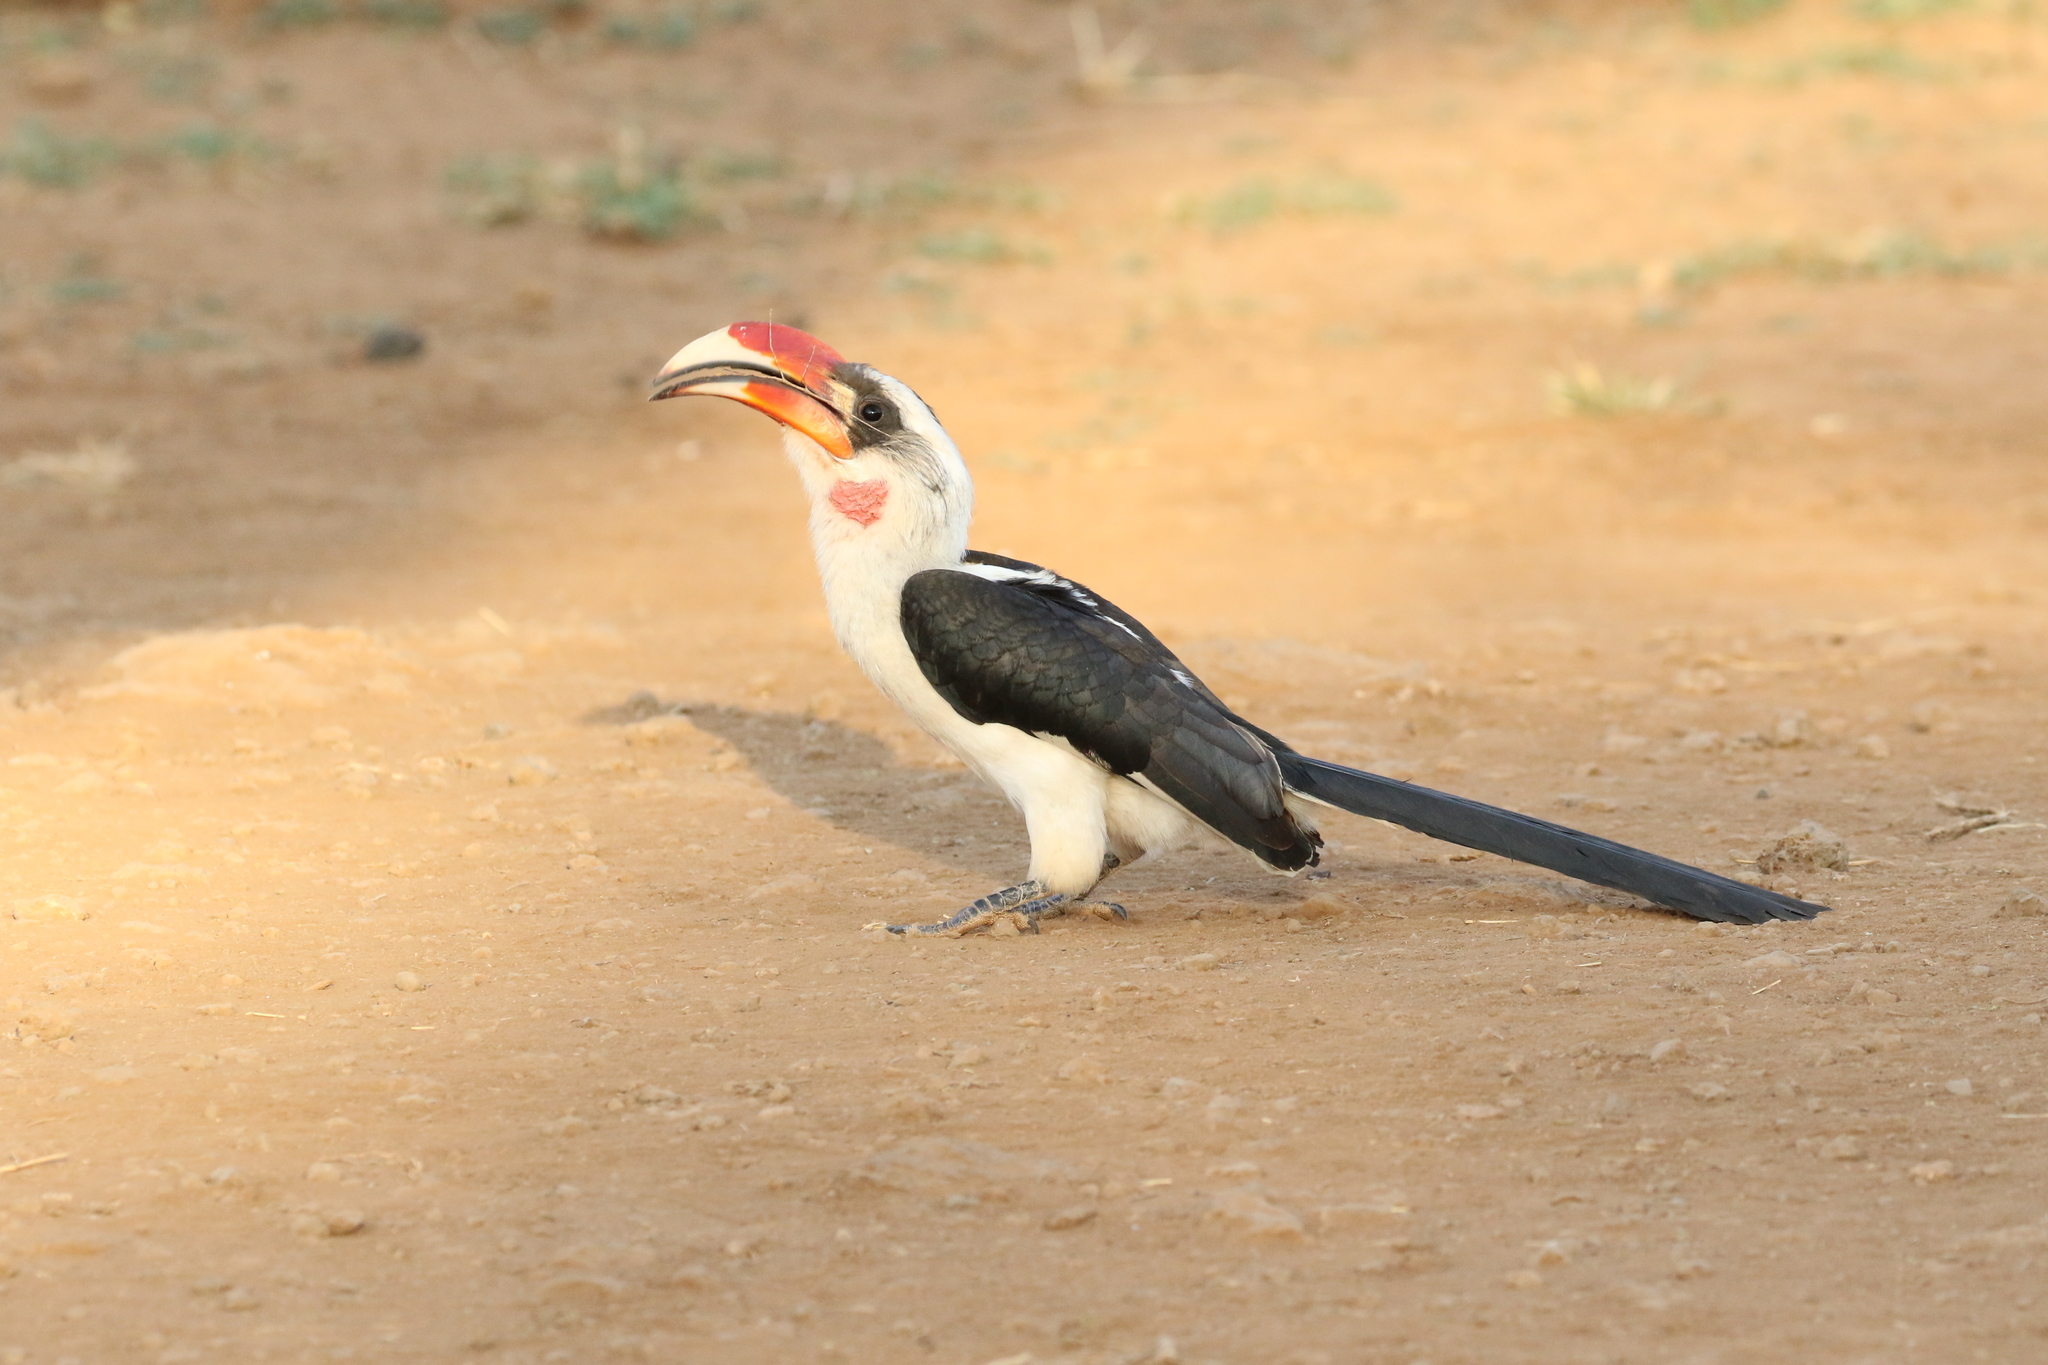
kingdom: Animalia
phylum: Chordata
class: Aves
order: Bucerotiformes
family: Bucerotidae
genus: Tockus
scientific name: Tockus deckeni
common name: Von der decken's hornbill
